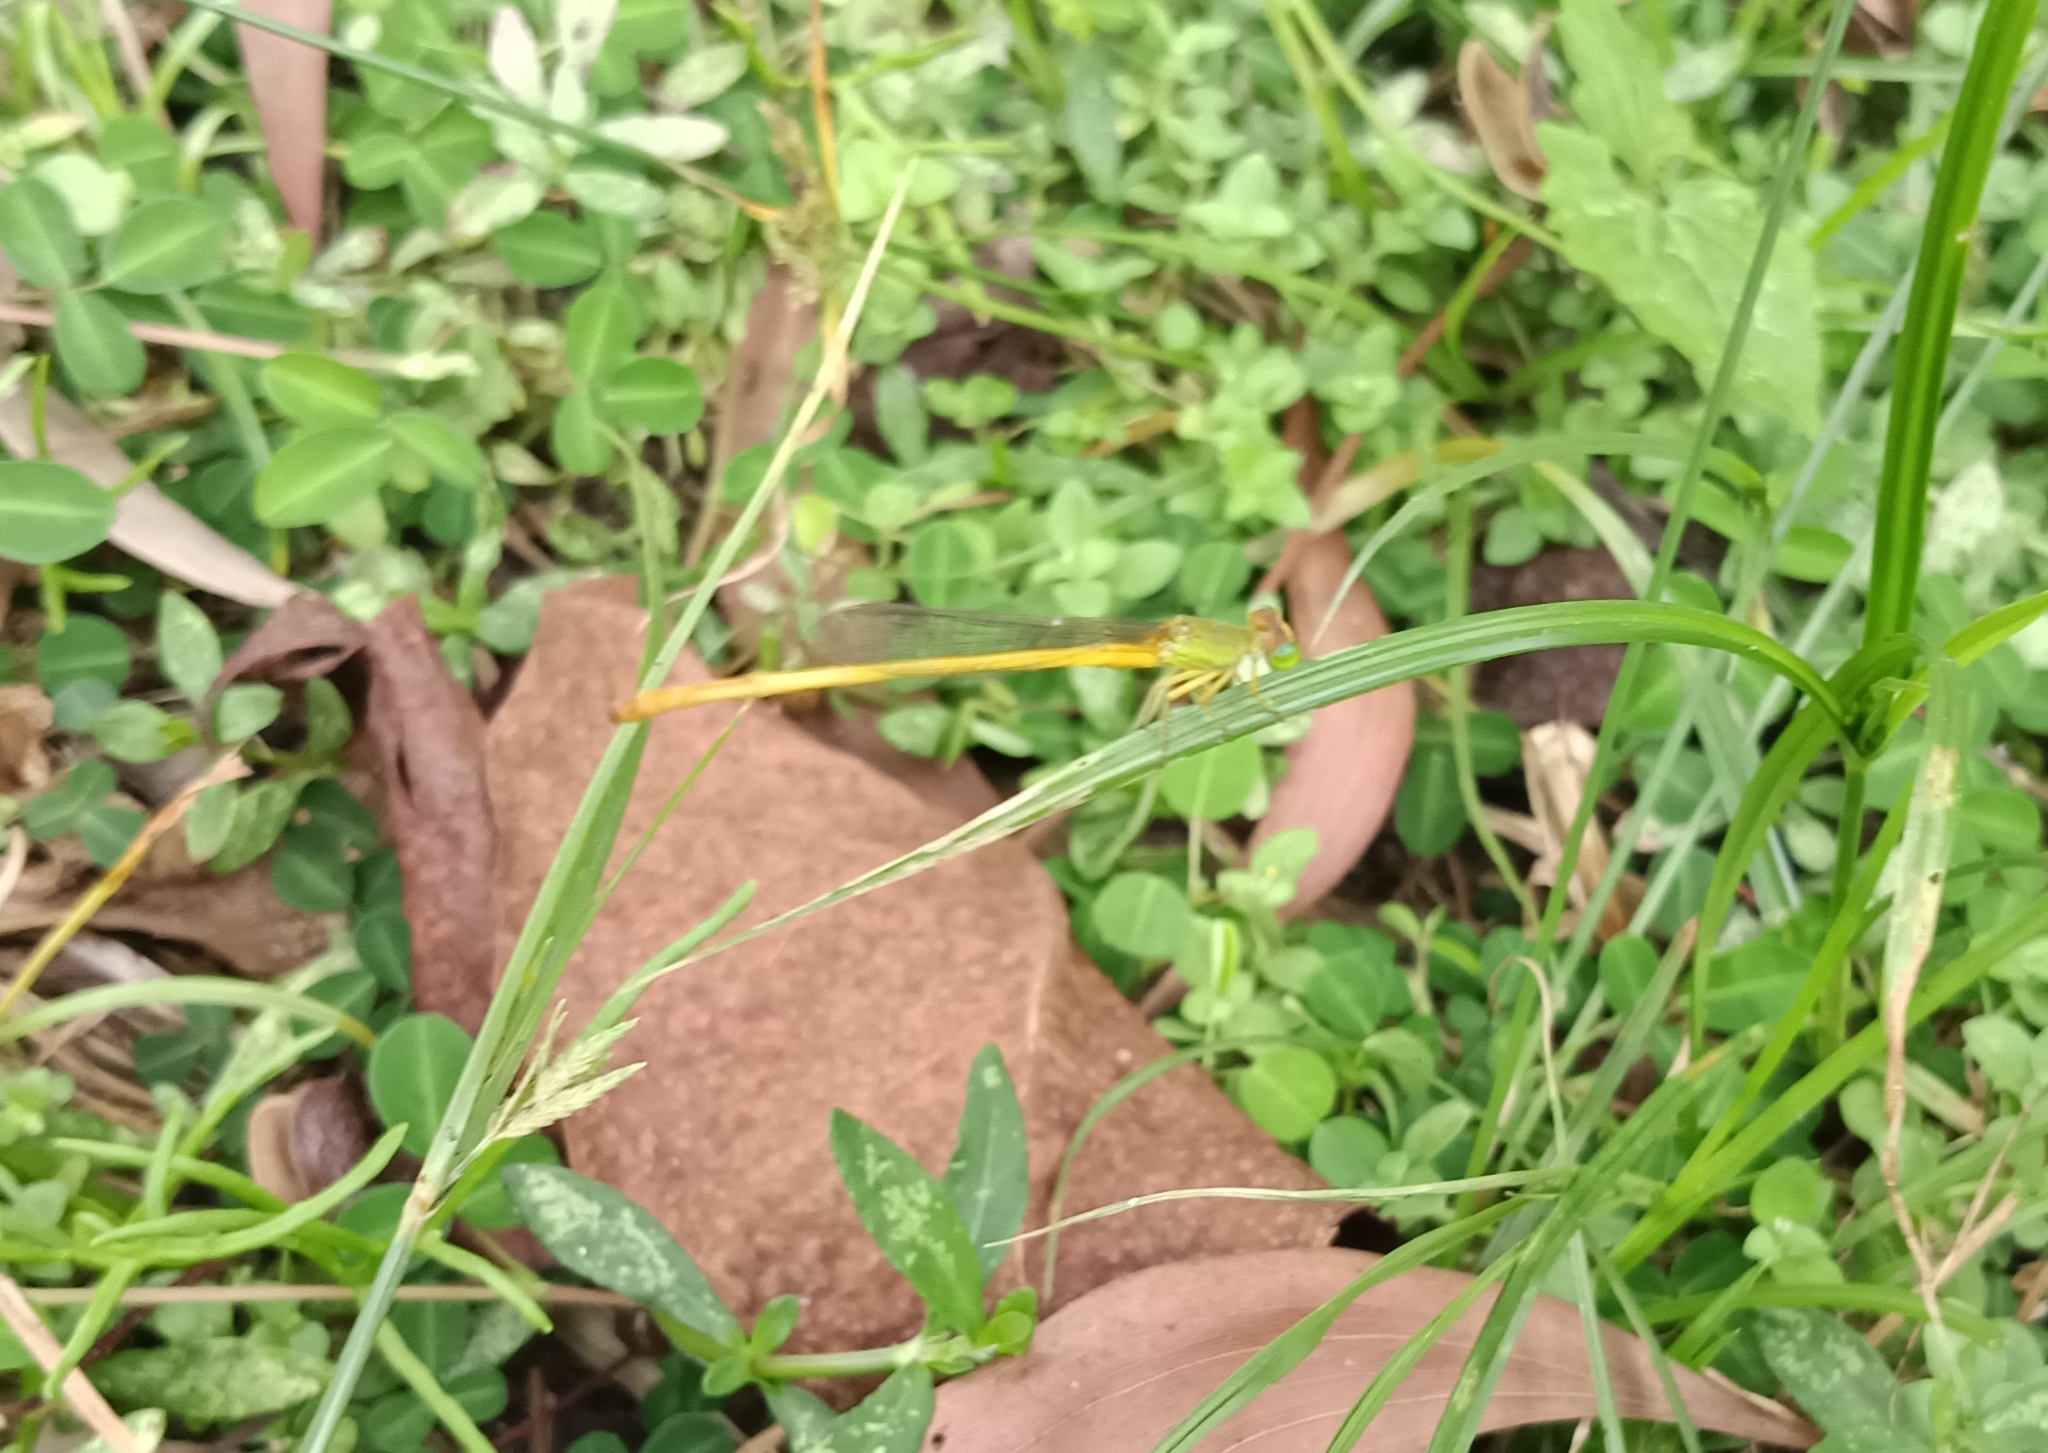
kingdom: Animalia
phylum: Arthropoda
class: Insecta
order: Odonata
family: Coenagrionidae
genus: Ceriagrion
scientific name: Ceriagrion coromandelianum
